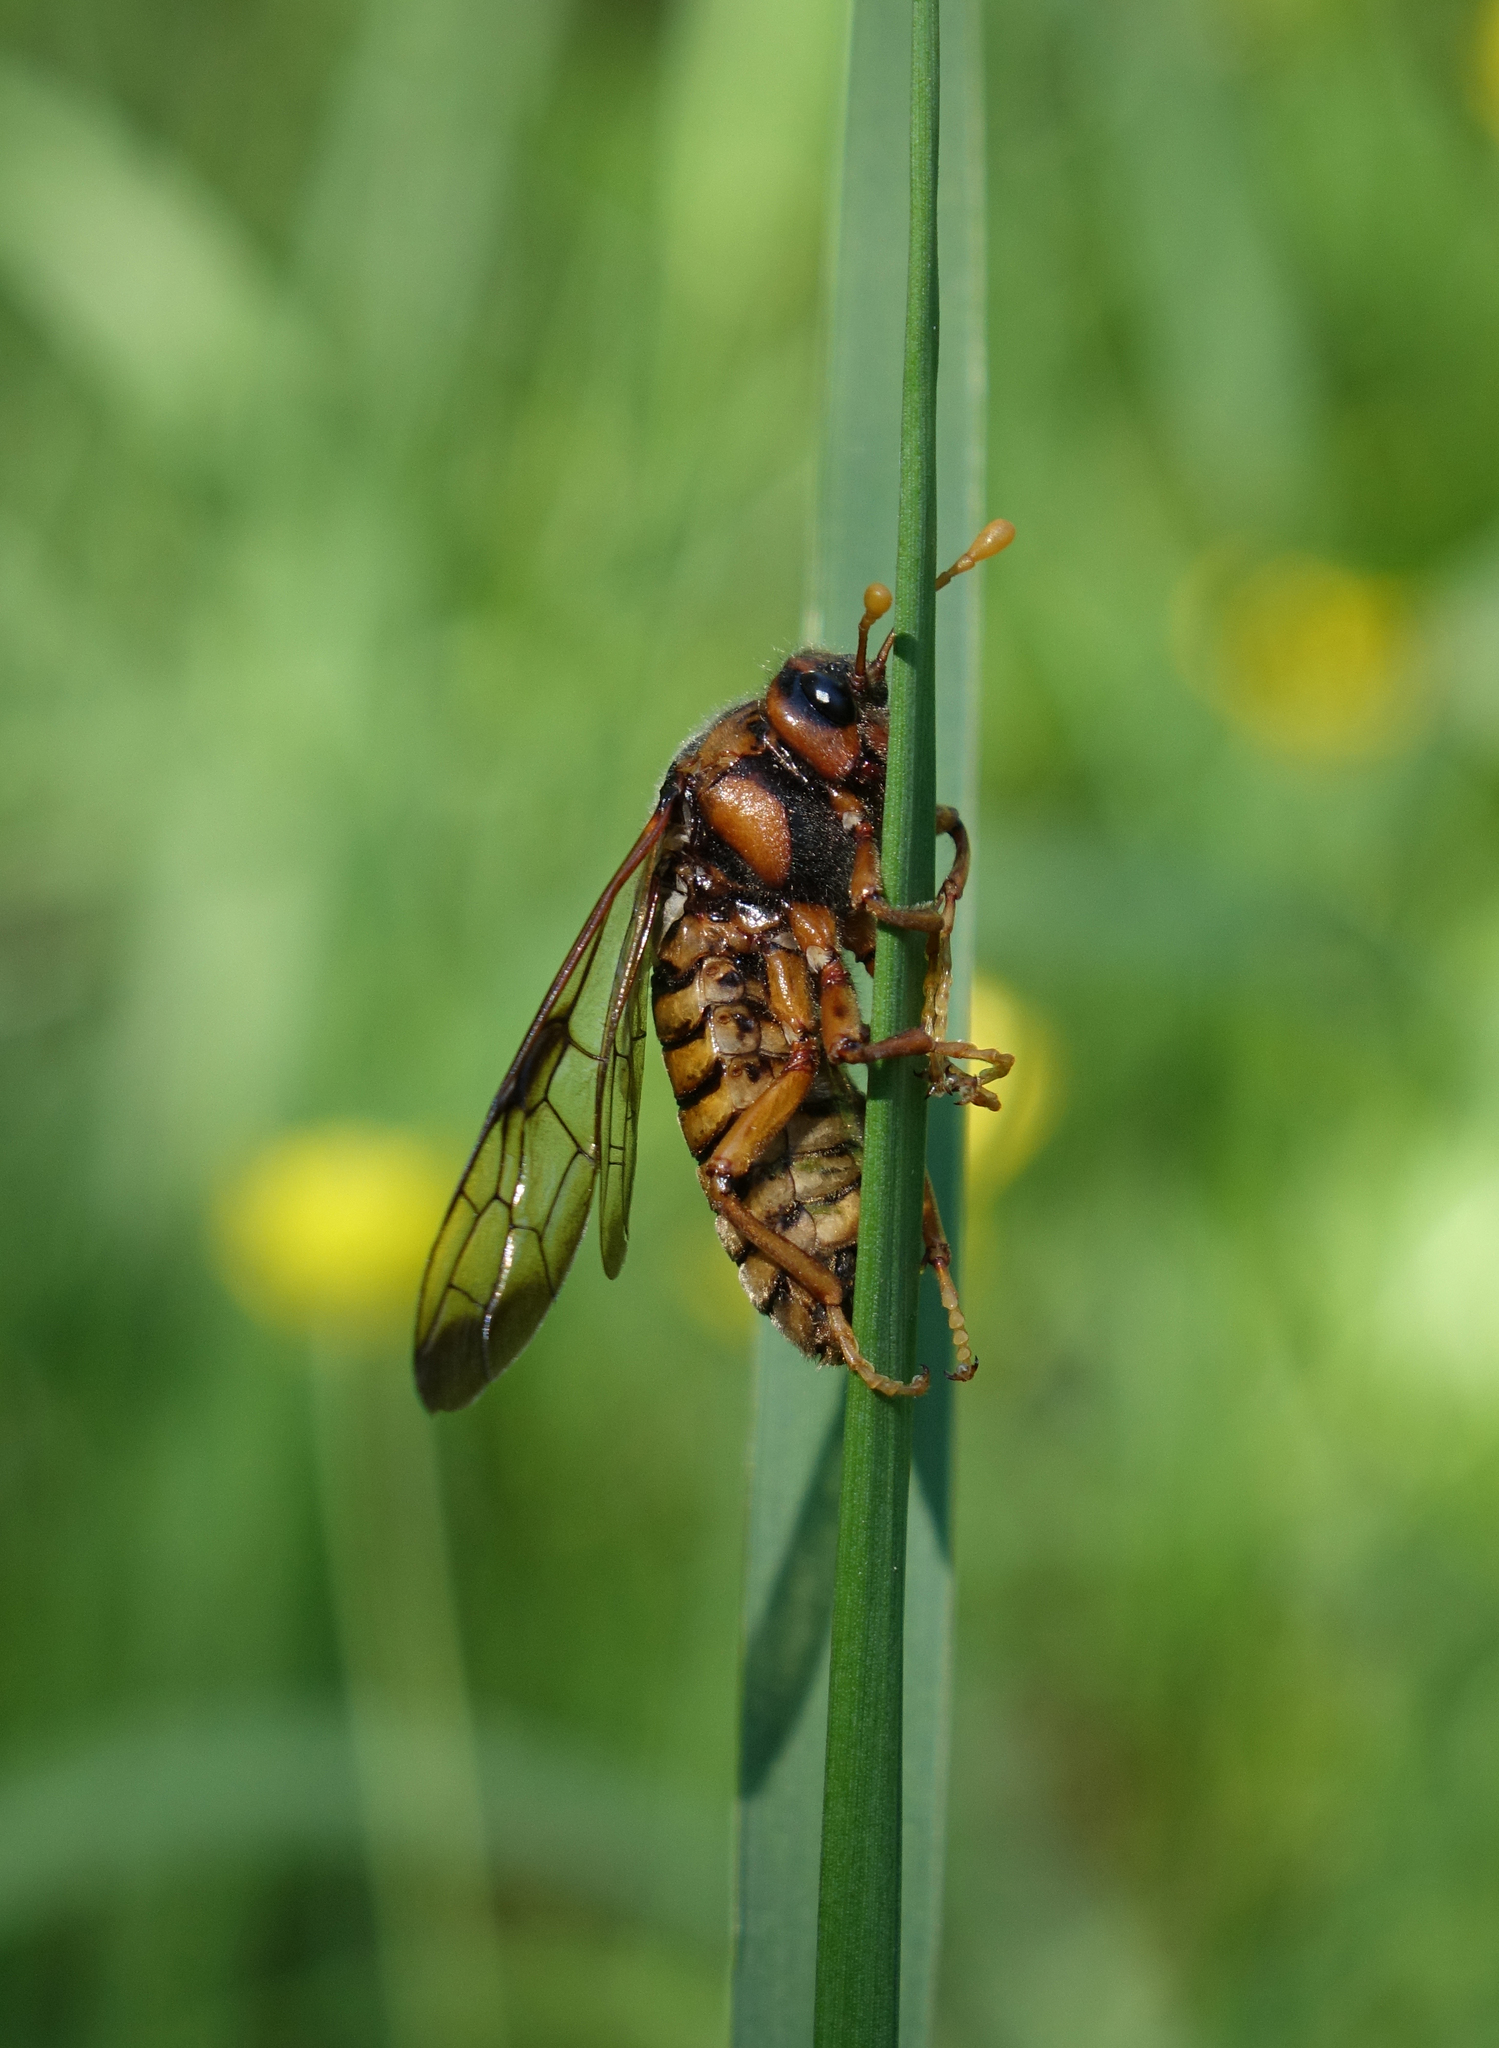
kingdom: Animalia
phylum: Arthropoda
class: Insecta
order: Hymenoptera
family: Cimbicidae
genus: Cimbex
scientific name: Cimbex femoratus
